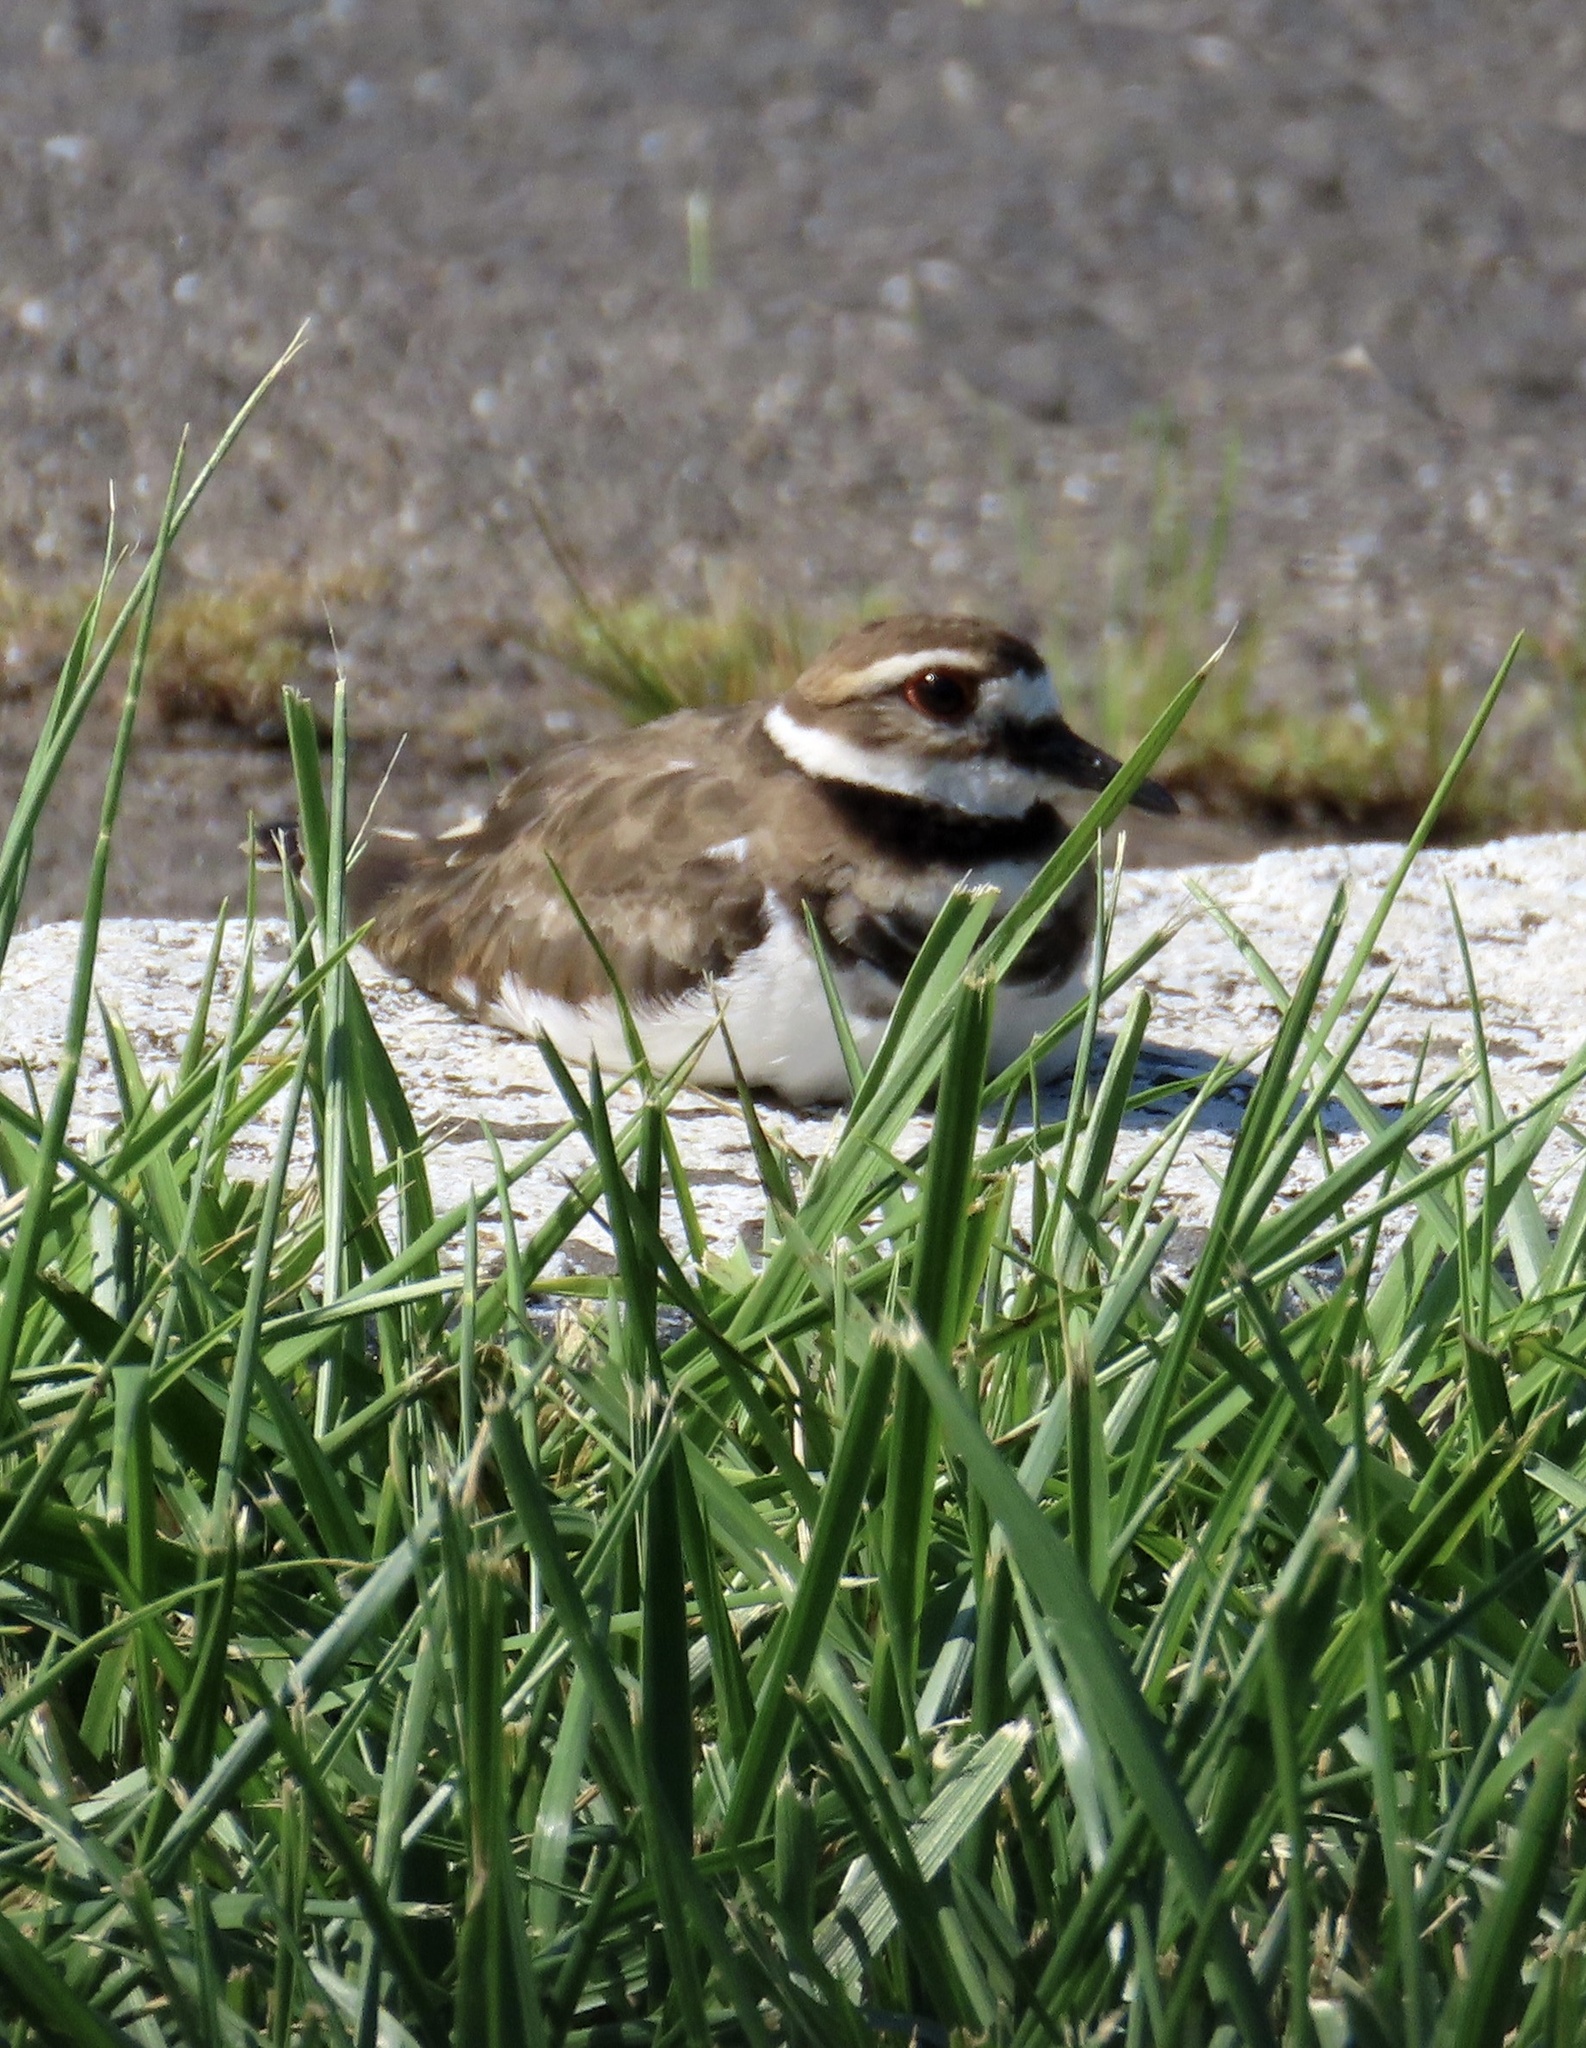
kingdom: Animalia
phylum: Chordata
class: Aves
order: Charadriiformes
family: Charadriidae
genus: Charadrius
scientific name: Charadrius vociferus
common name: Killdeer
